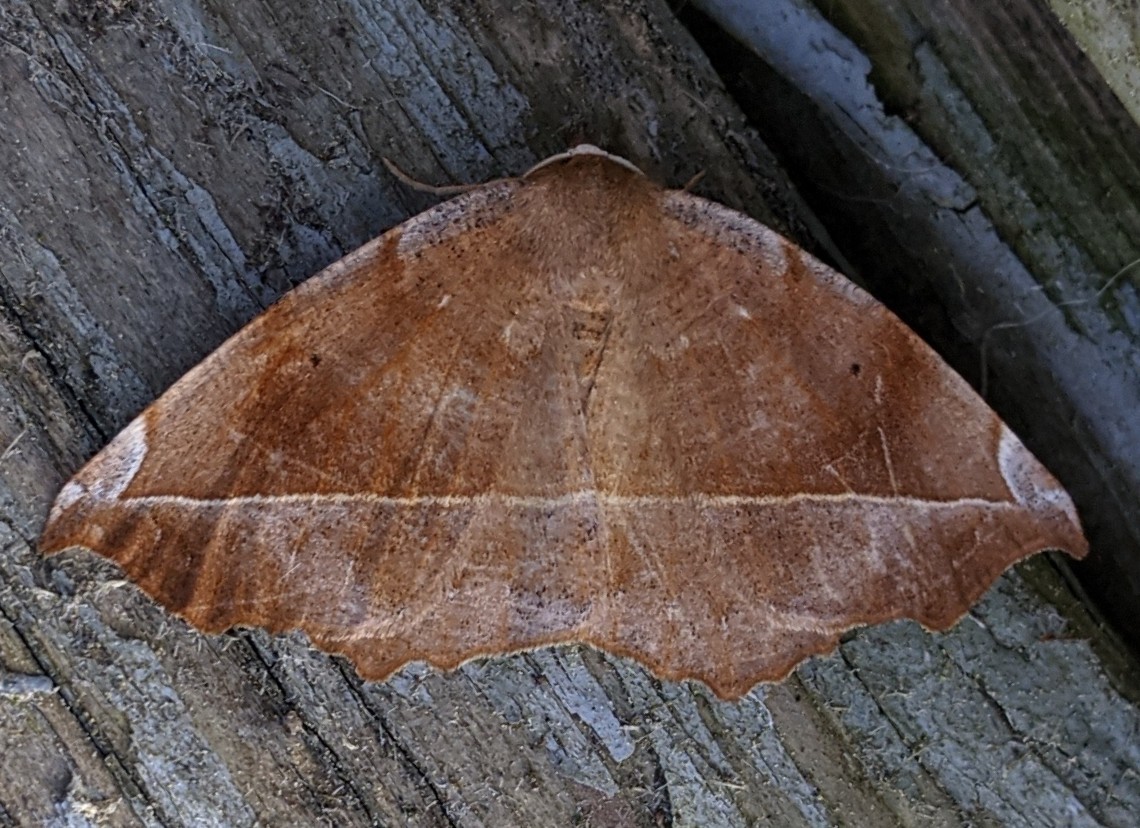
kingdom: Animalia
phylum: Arthropoda
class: Insecta
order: Lepidoptera
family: Geometridae
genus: Eutrapela
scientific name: Eutrapela clemataria
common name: Curved-toothed geometer
